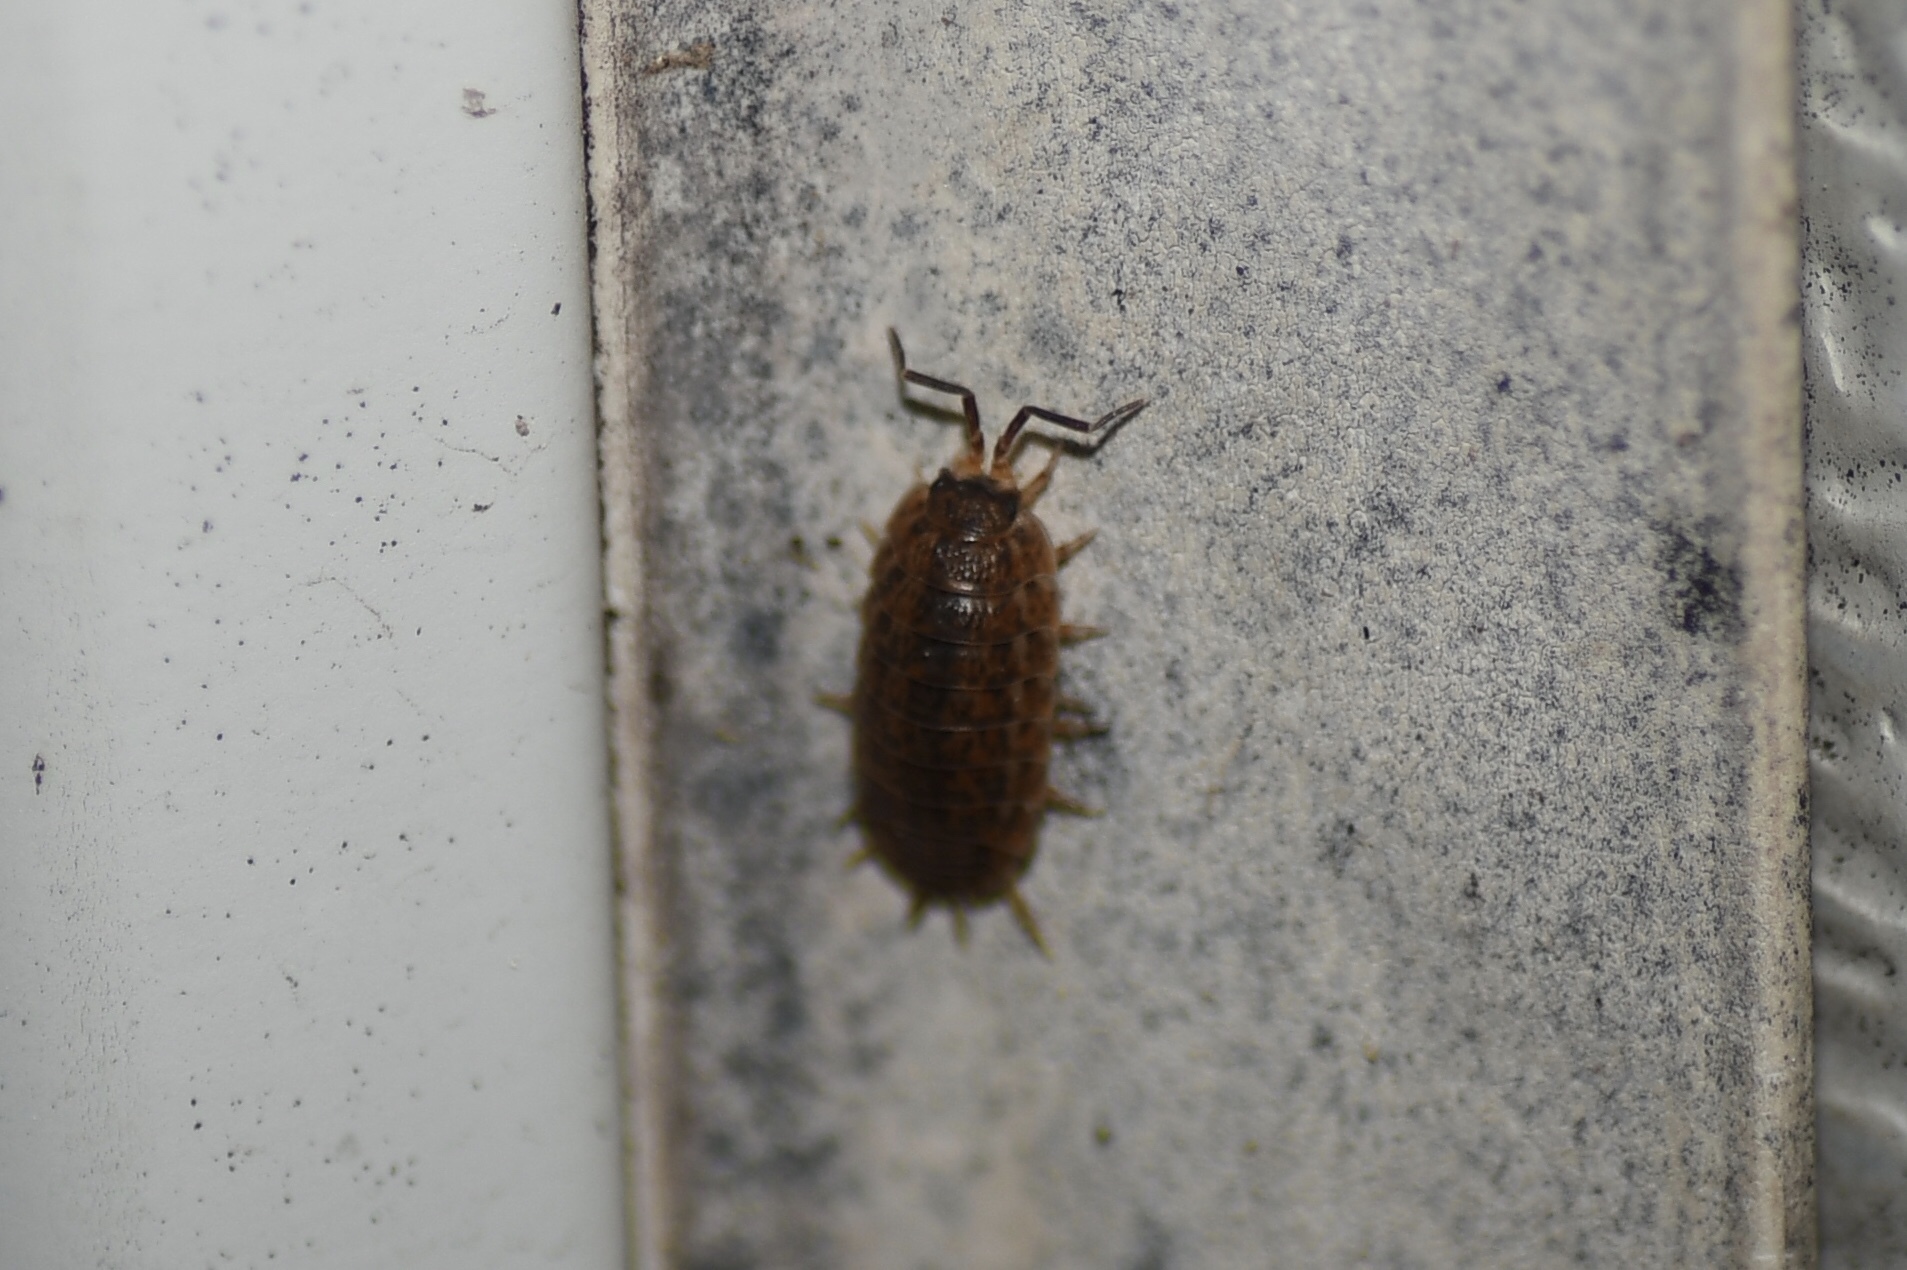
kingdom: Animalia
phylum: Arthropoda
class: Malacostraca
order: Isopoda
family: Trachelipodidae
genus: Trachelipus
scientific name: Trachelipus rathkii
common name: Isopod
